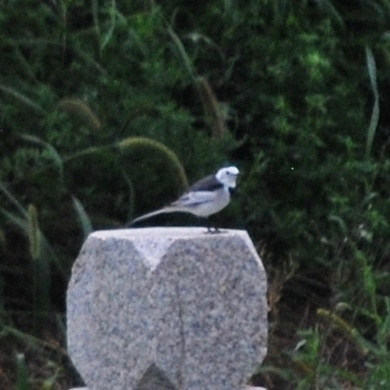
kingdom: Animalia
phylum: Chordata
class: Aves
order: Passeriformes
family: Motacillidae
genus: Motacilla
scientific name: Motacilla alba
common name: White wagtail
